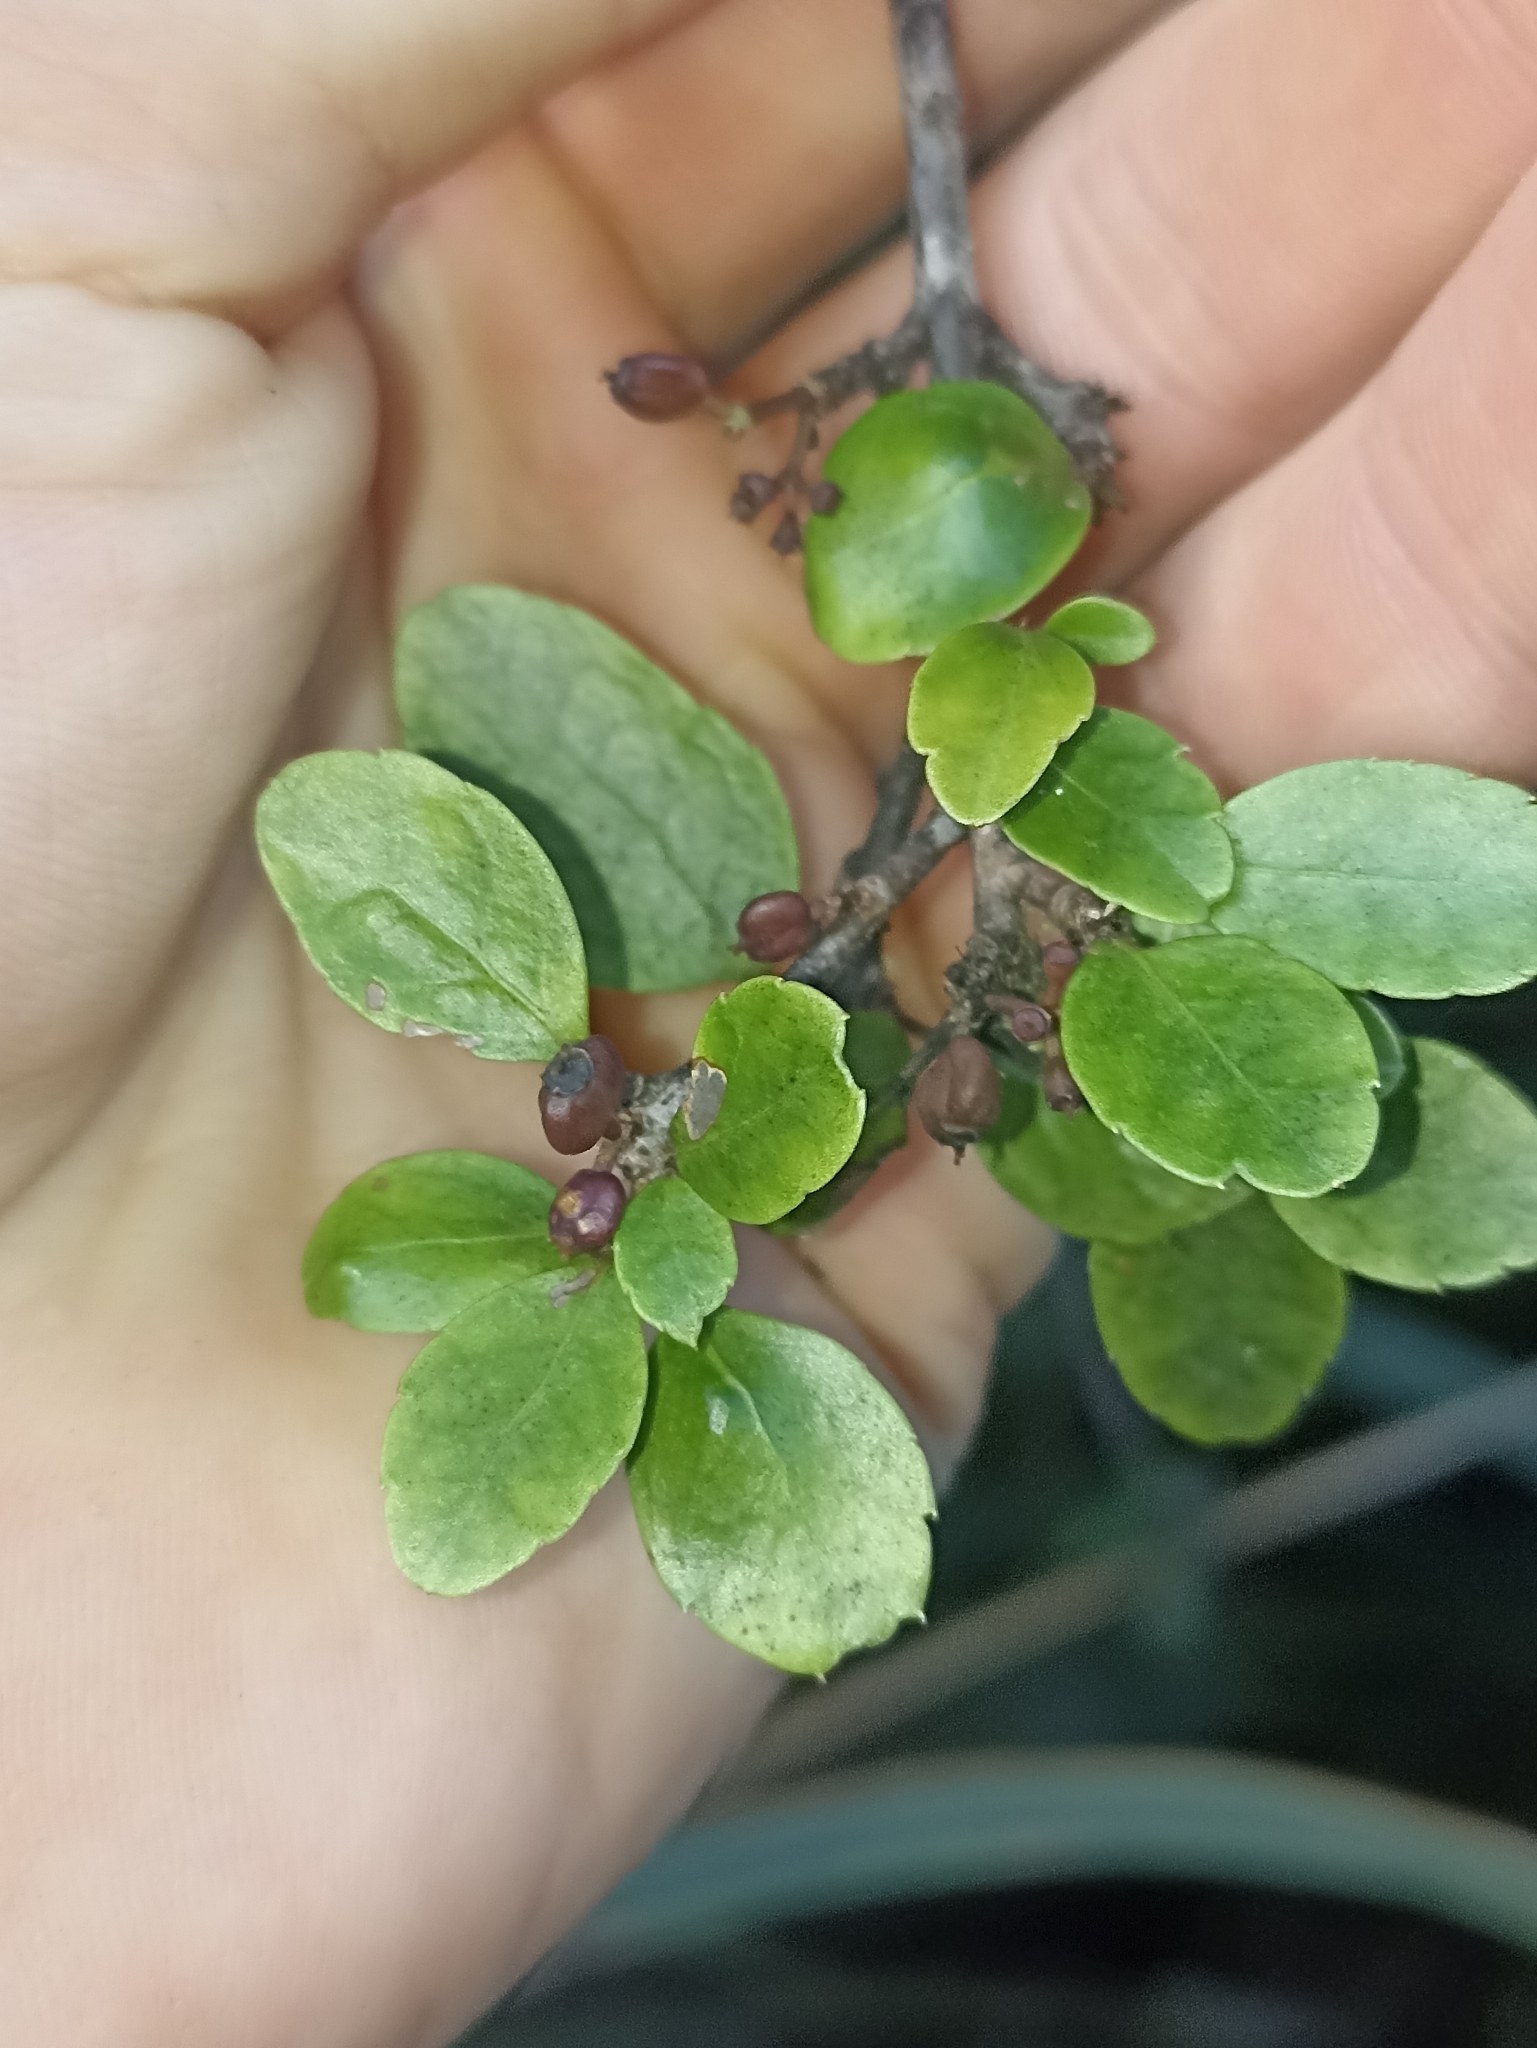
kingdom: Plantae
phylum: Tracheophyta
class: Magnoliopsida
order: Apiales
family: Araliaceae
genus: Raukaua
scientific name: Raukaua parvus
